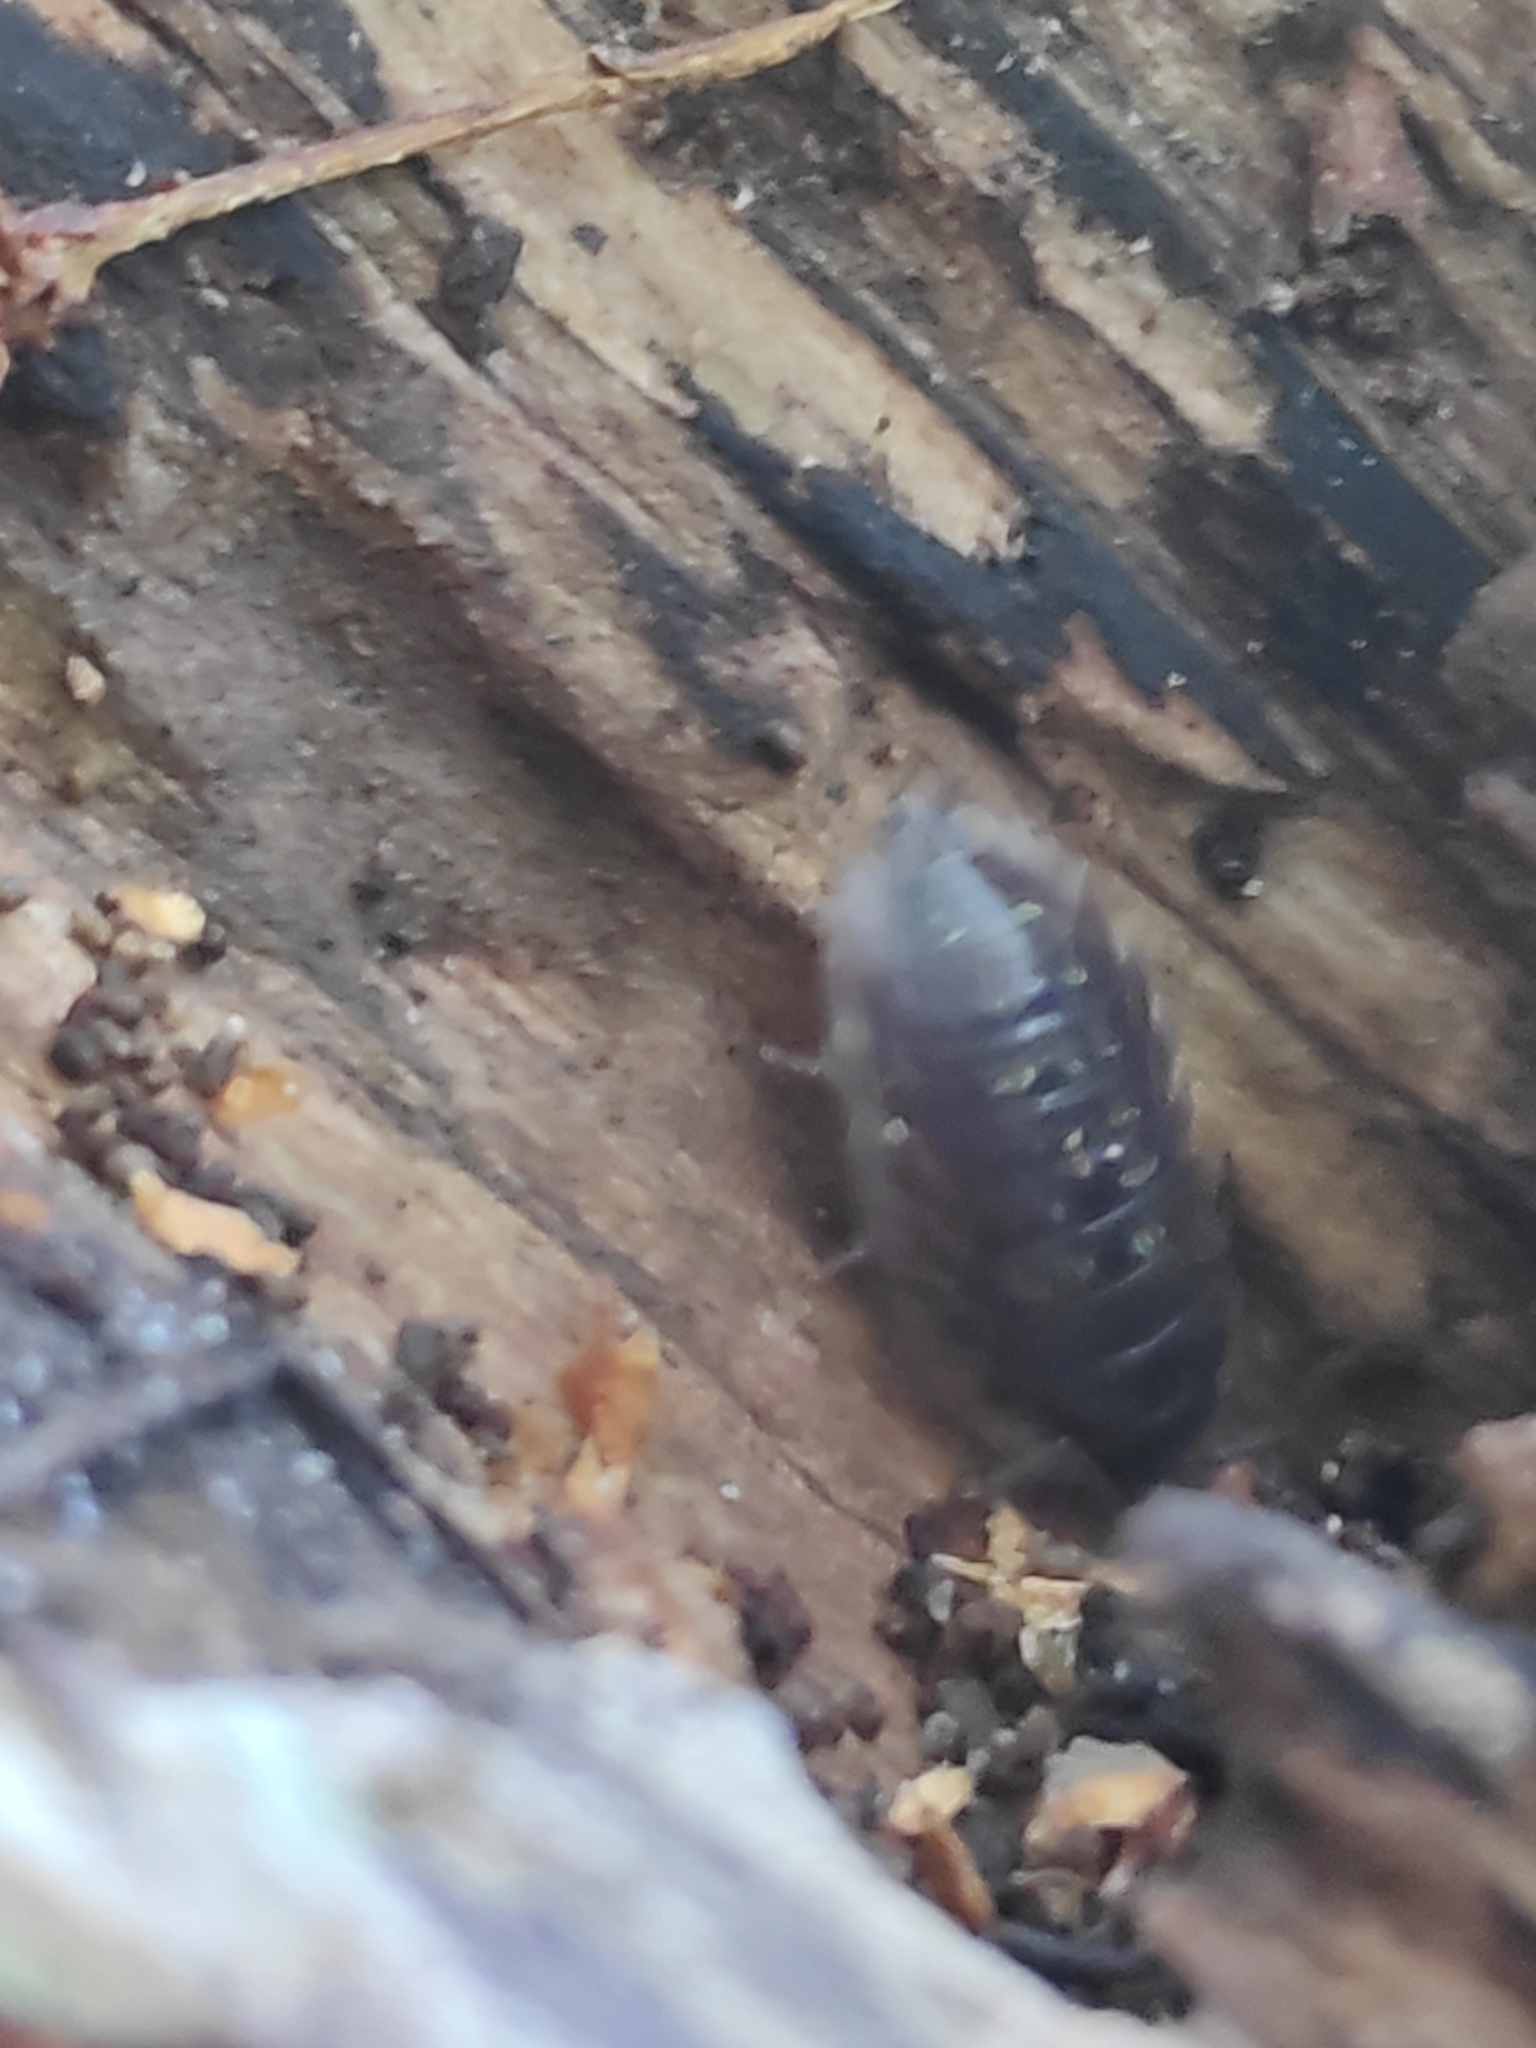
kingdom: Animalia
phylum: Arthropoda
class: Malacostraca
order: Isopoda
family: Oniscidae
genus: Oniscus
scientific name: Oniscus asellus
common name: Common shiny woodlouse
